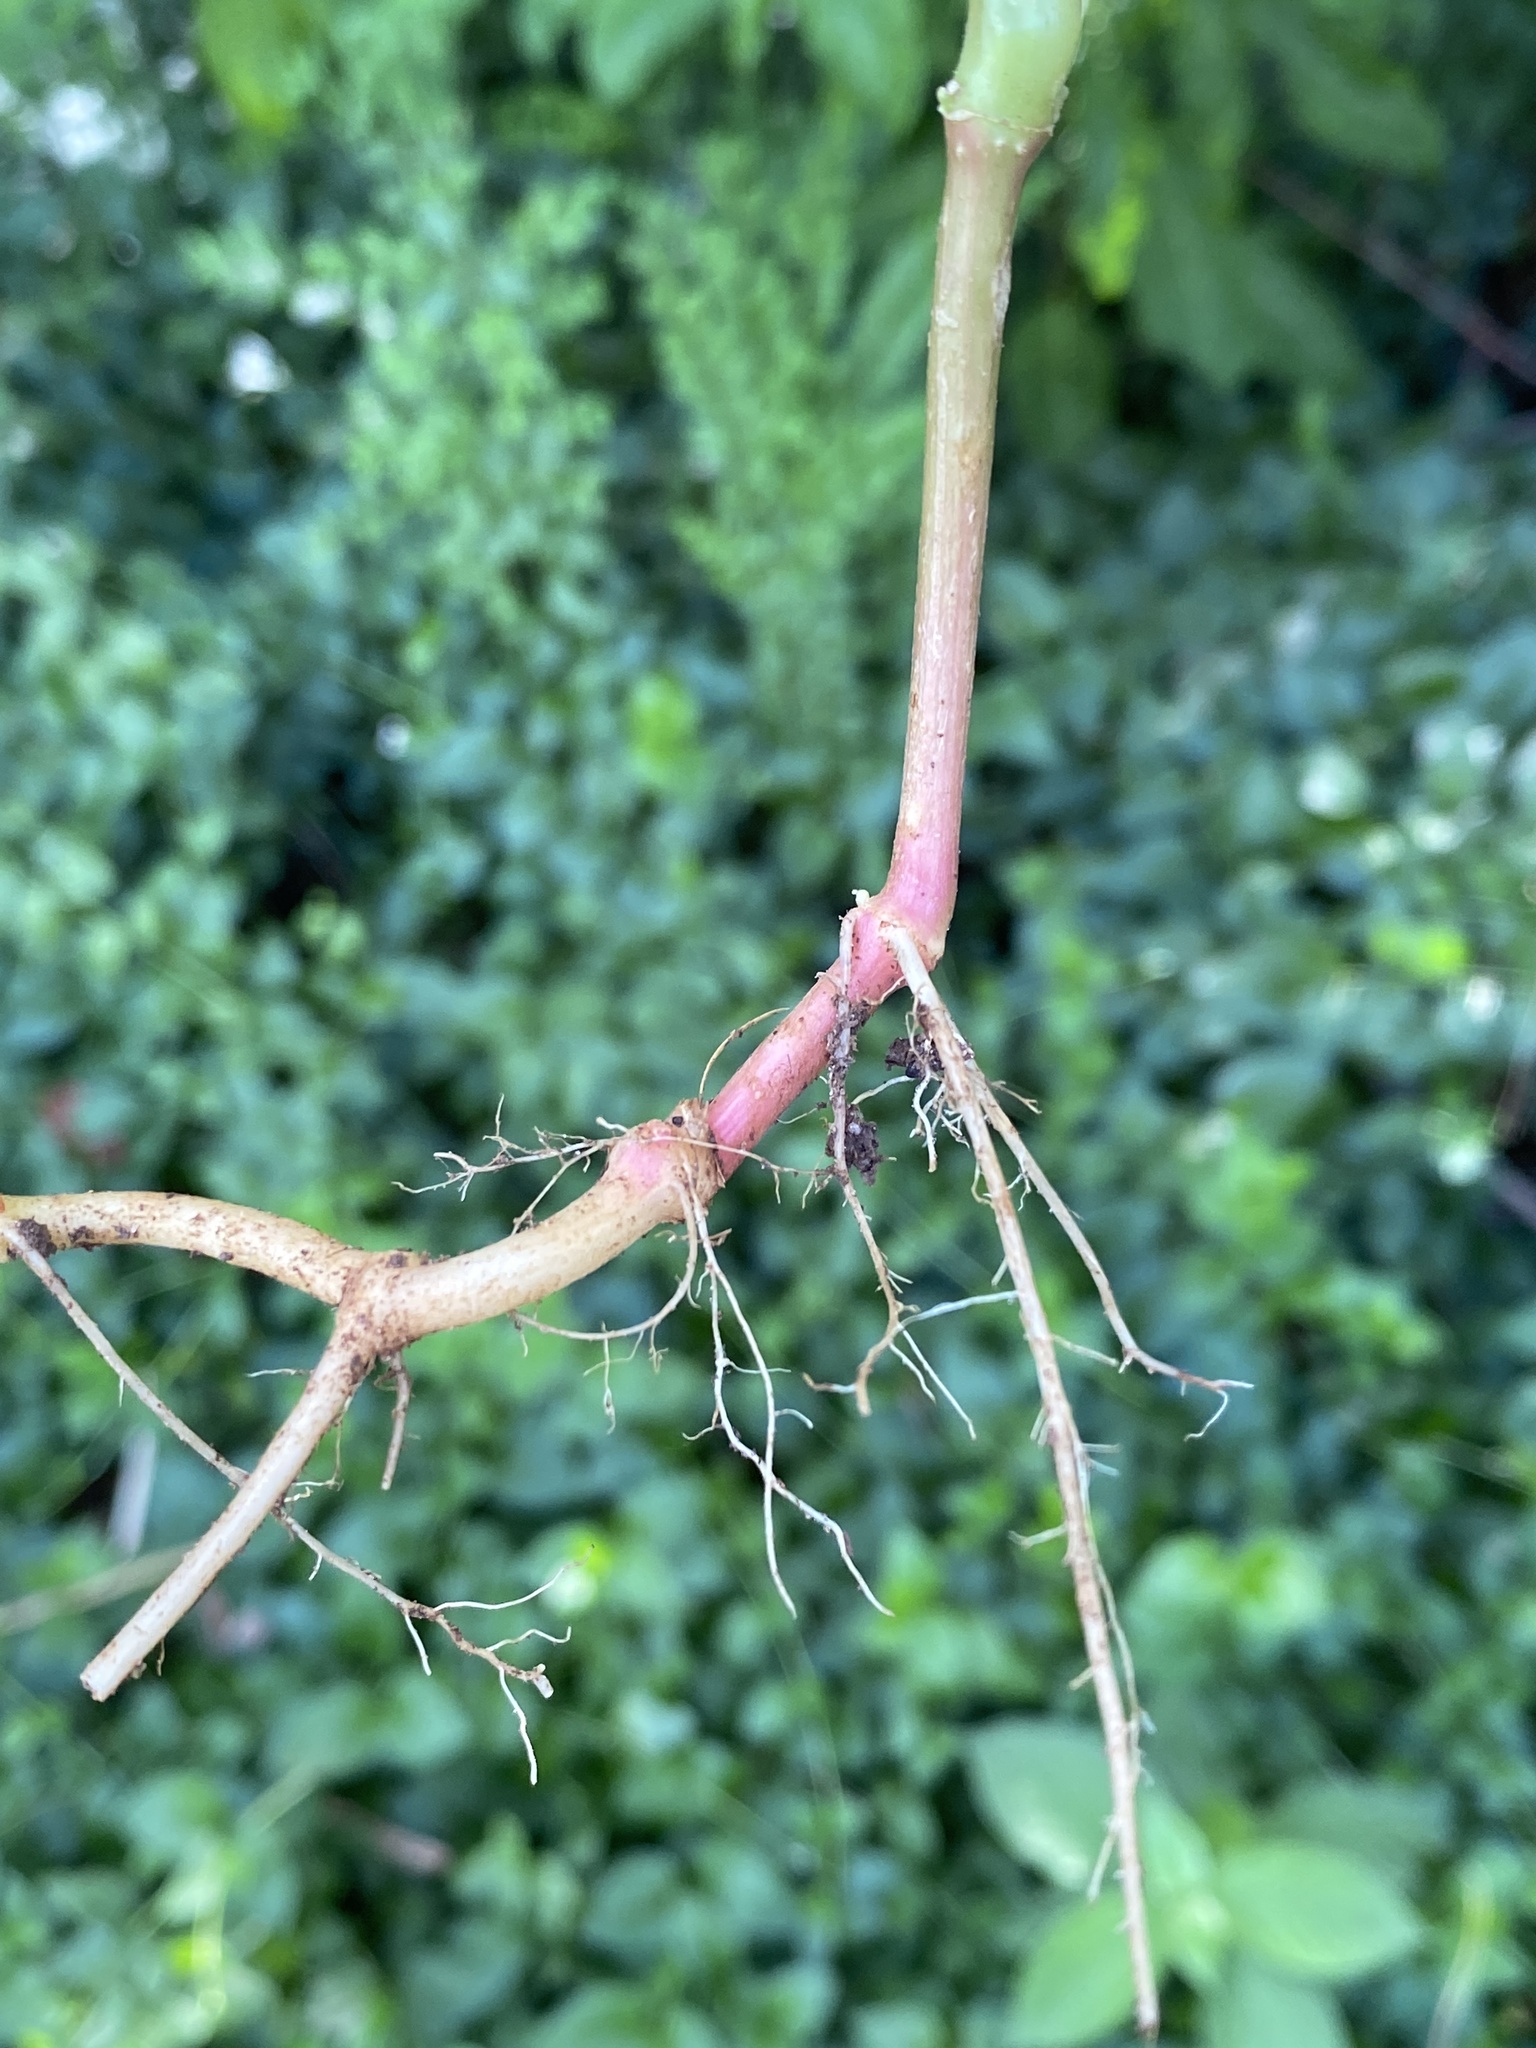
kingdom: Plantae
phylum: Tracheophyta
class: Magnoliopsida
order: Caryophyllales
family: Amaranthaceae
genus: Achyranthes
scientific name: Achyranthes bidentata
